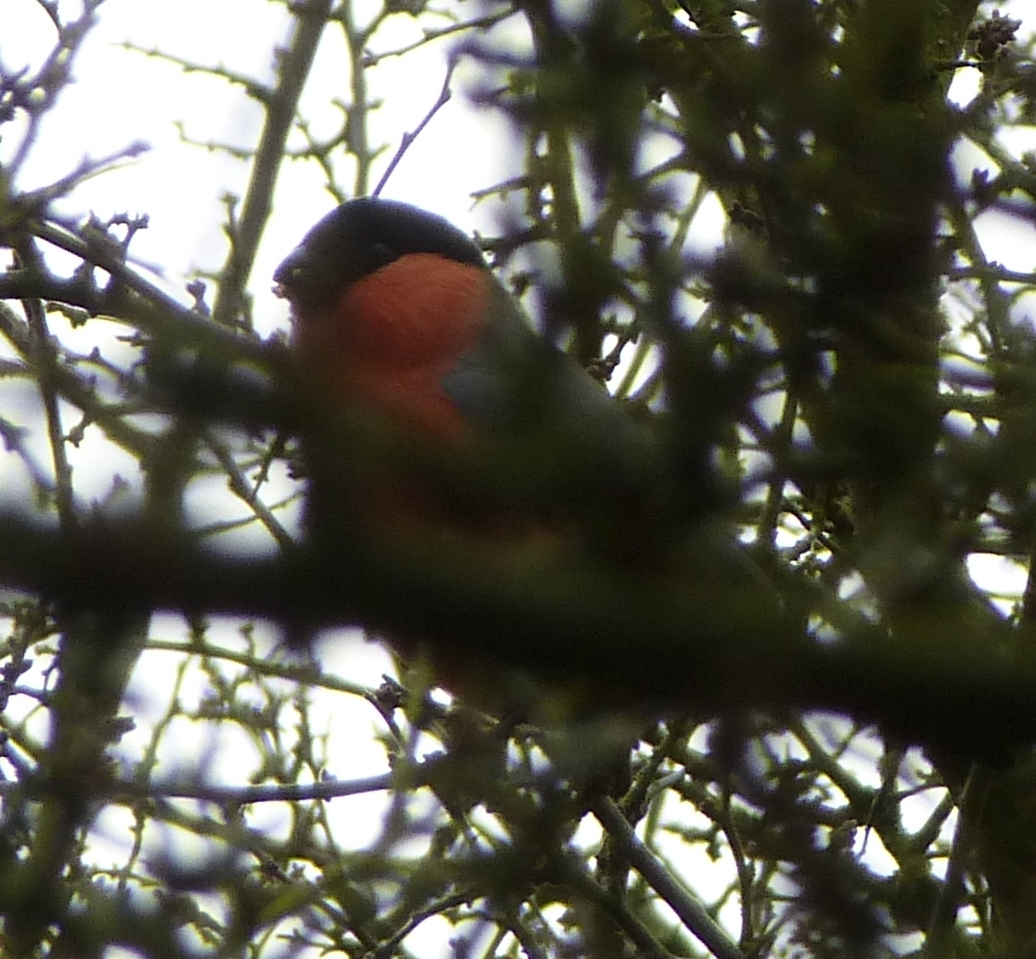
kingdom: Animalia
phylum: Chordata
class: Aves
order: Passeriformes
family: Fringillidae
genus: Pyrrhula
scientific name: Pyrrhula pyrrhula
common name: Eurasian bullfinch
